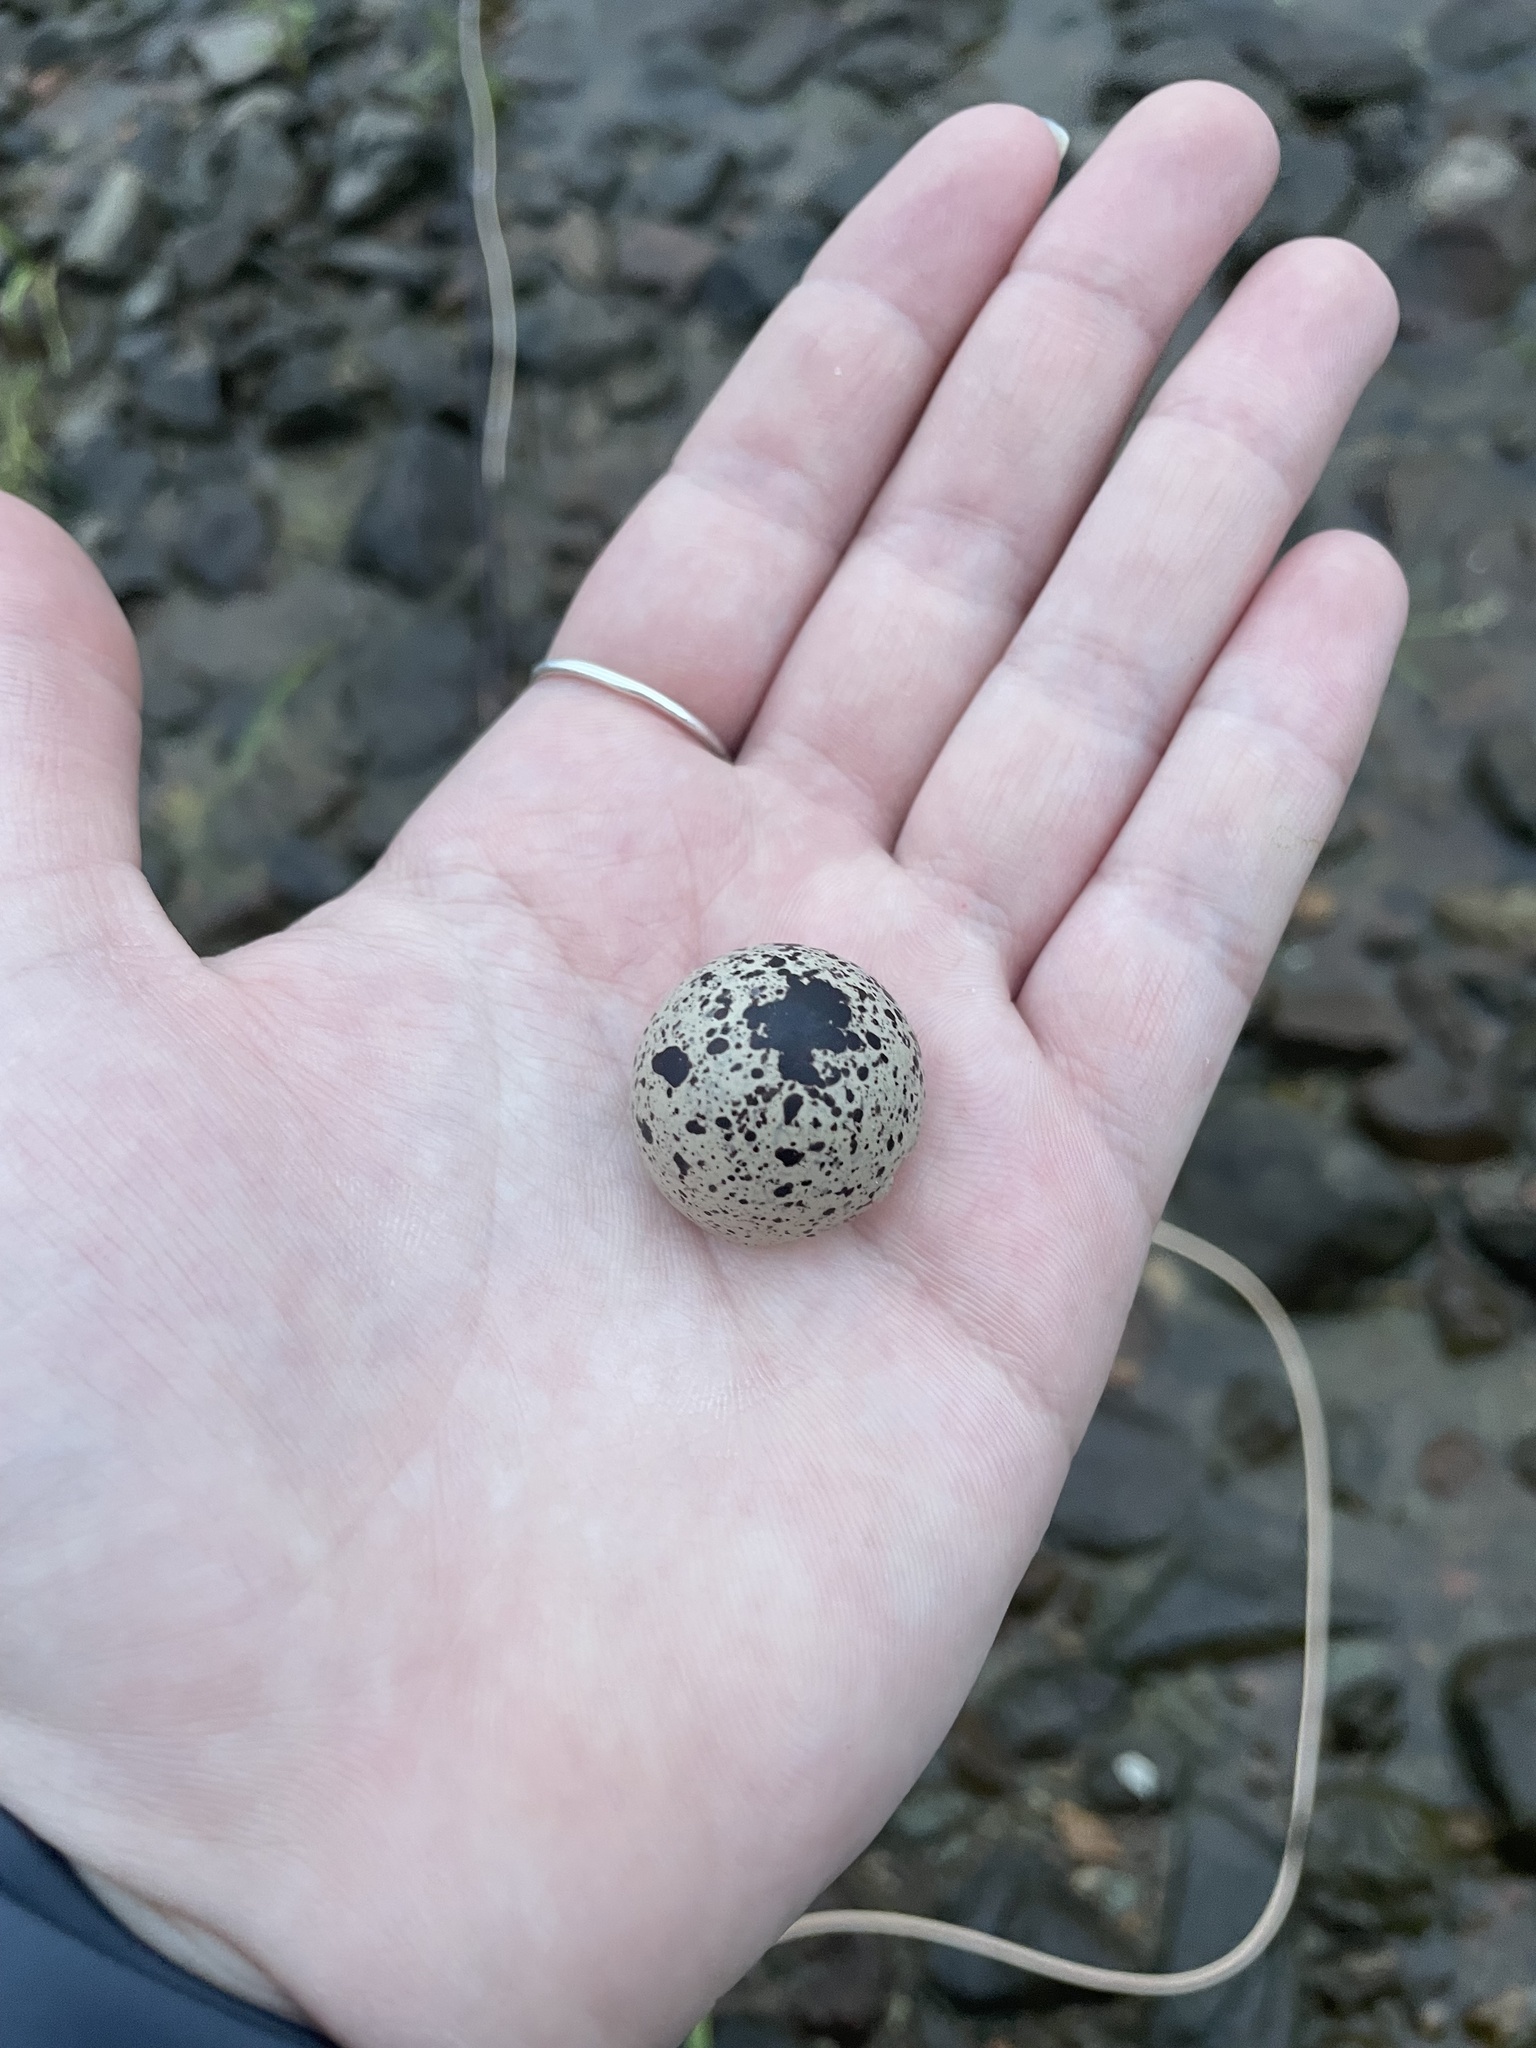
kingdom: Animalia
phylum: Chordata
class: Aves
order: Charadriiformes
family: Charadriidae
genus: Charadrius
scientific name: Charadrius vociferus
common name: Killdeer
